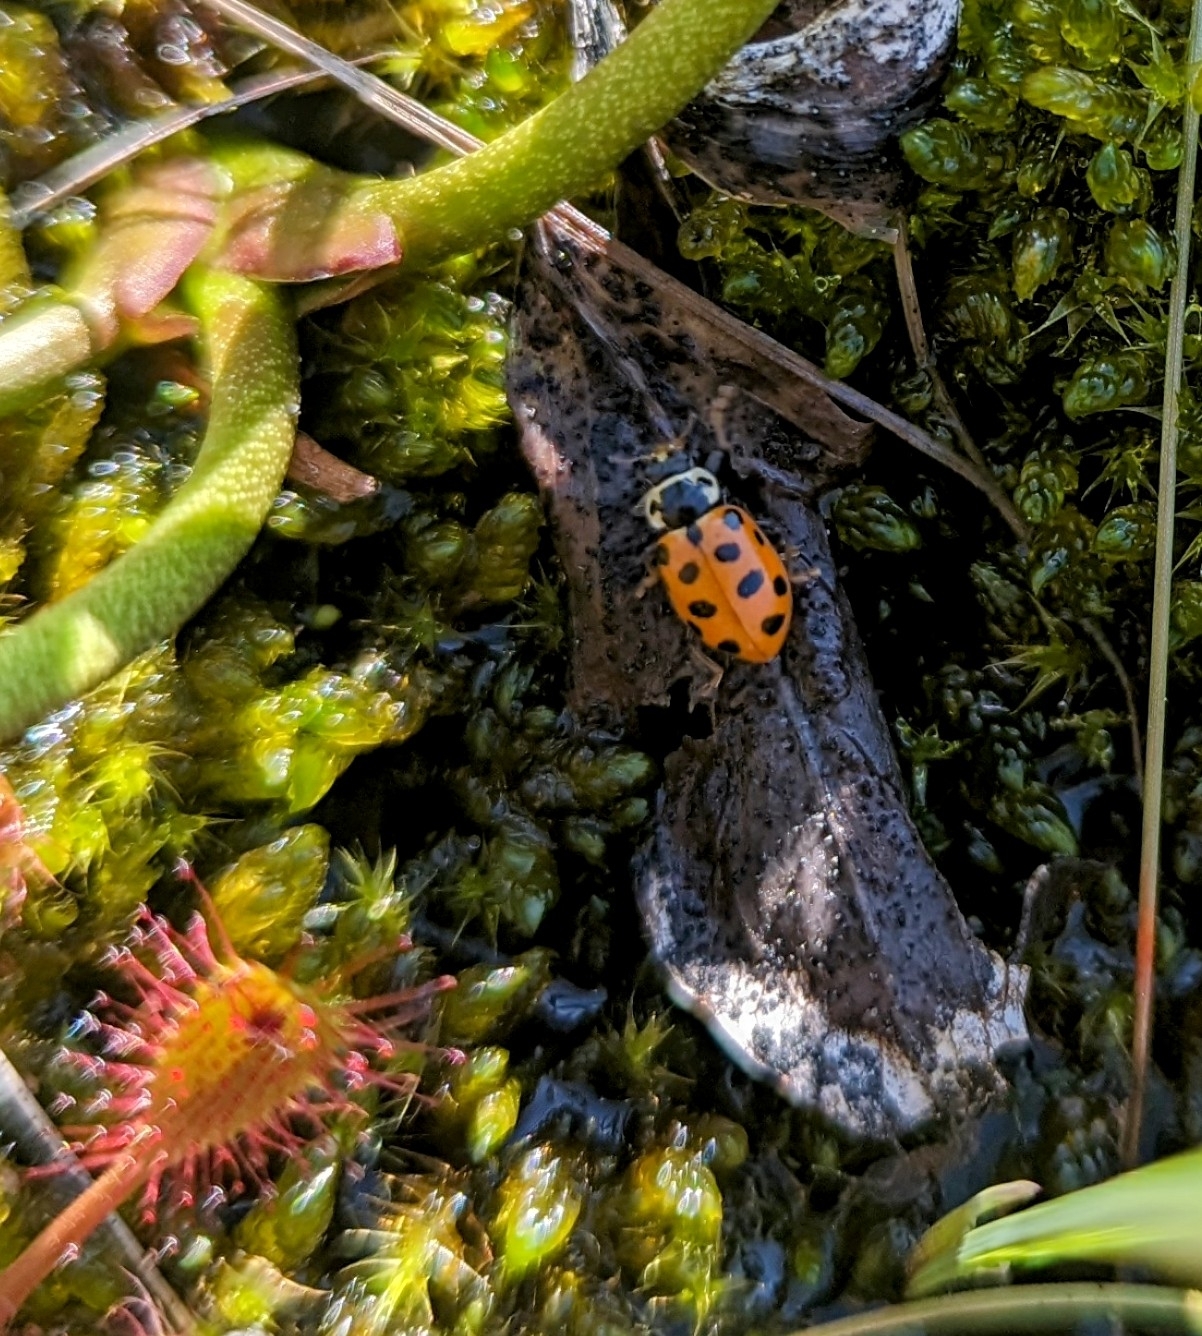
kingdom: Animalia
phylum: Arthropoda
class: Insecta
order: Coleoptera
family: Coccinellidae
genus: Hippodamia
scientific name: Hippodamia tredecimpunctata
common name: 13-spot ladybird
